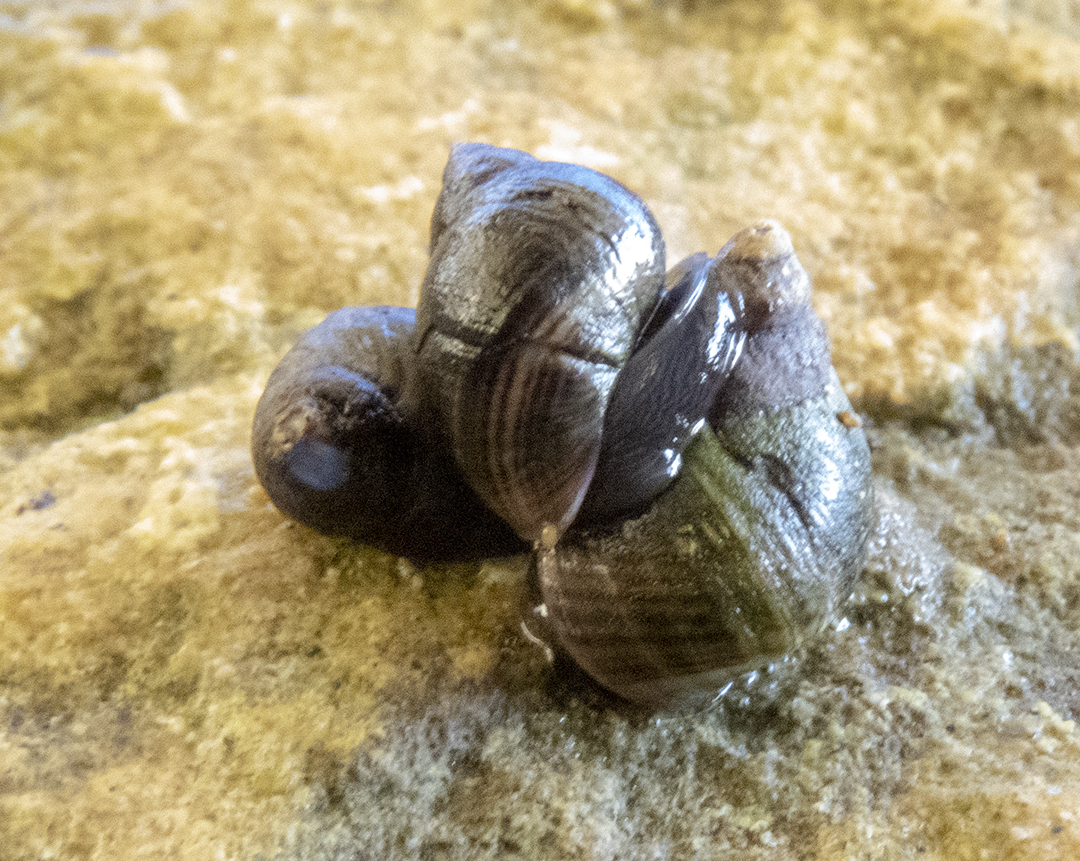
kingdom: Animalia
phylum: Mollusca
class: Gastropoda
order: Littorinimorpha
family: Littorinidae
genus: Austrolittorina
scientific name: Austrolittorina cincta
